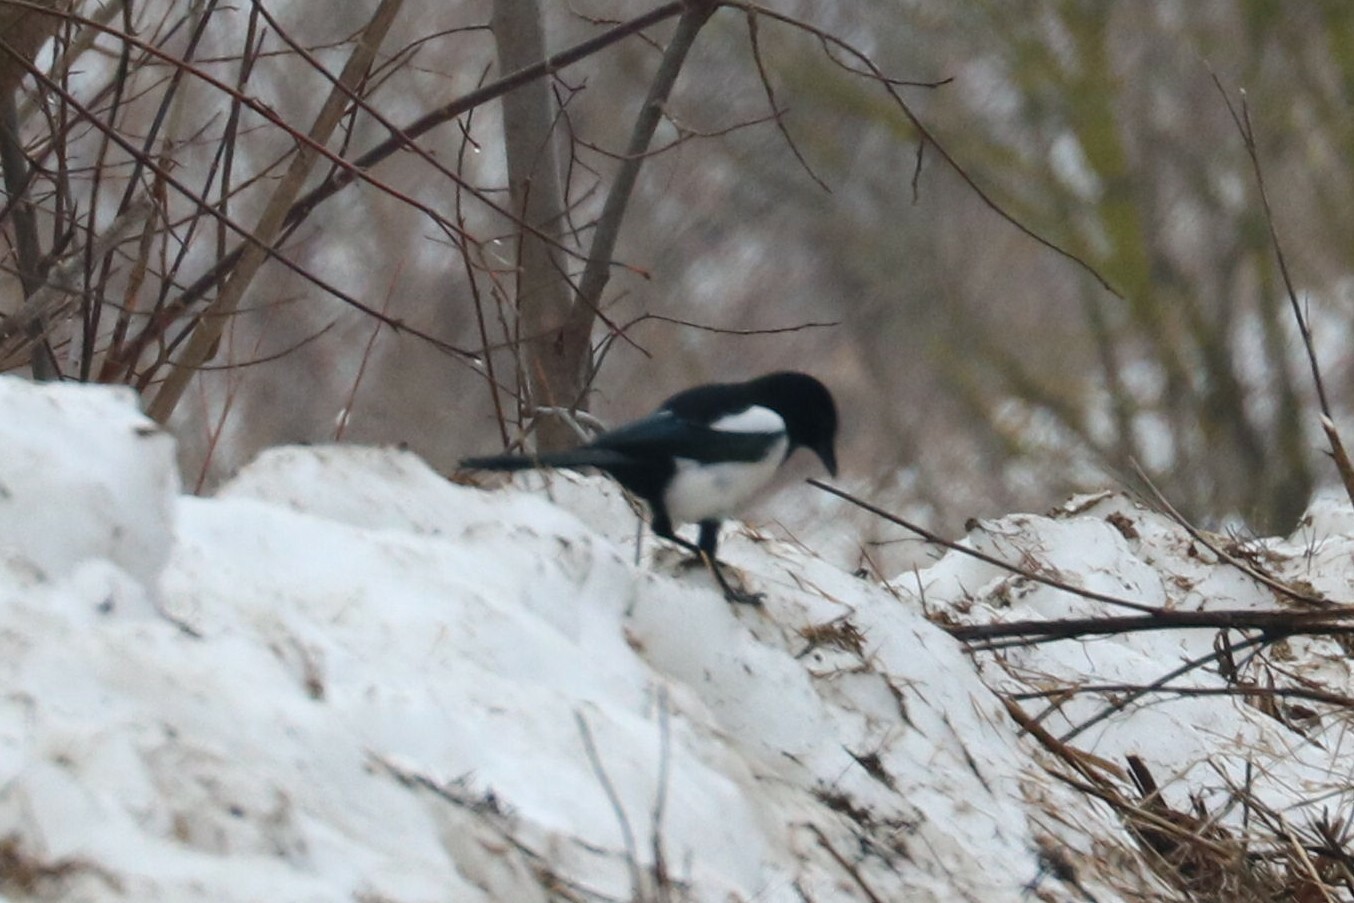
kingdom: Animalia
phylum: Chordata
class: Aves
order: Passeriformes
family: Corvidae
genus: Pica
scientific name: Pica pica
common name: Eurasian magpie
